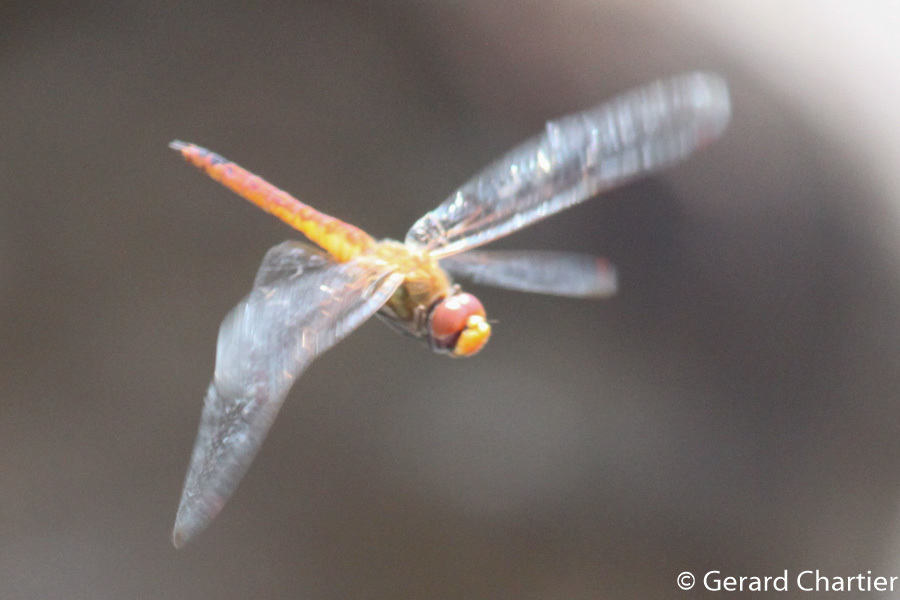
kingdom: Animalia
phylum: Arthropoda
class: Insecta
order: Odonata
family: Libellulidae
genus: Pantala
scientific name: Pantala flavescens
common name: Wandering glider
